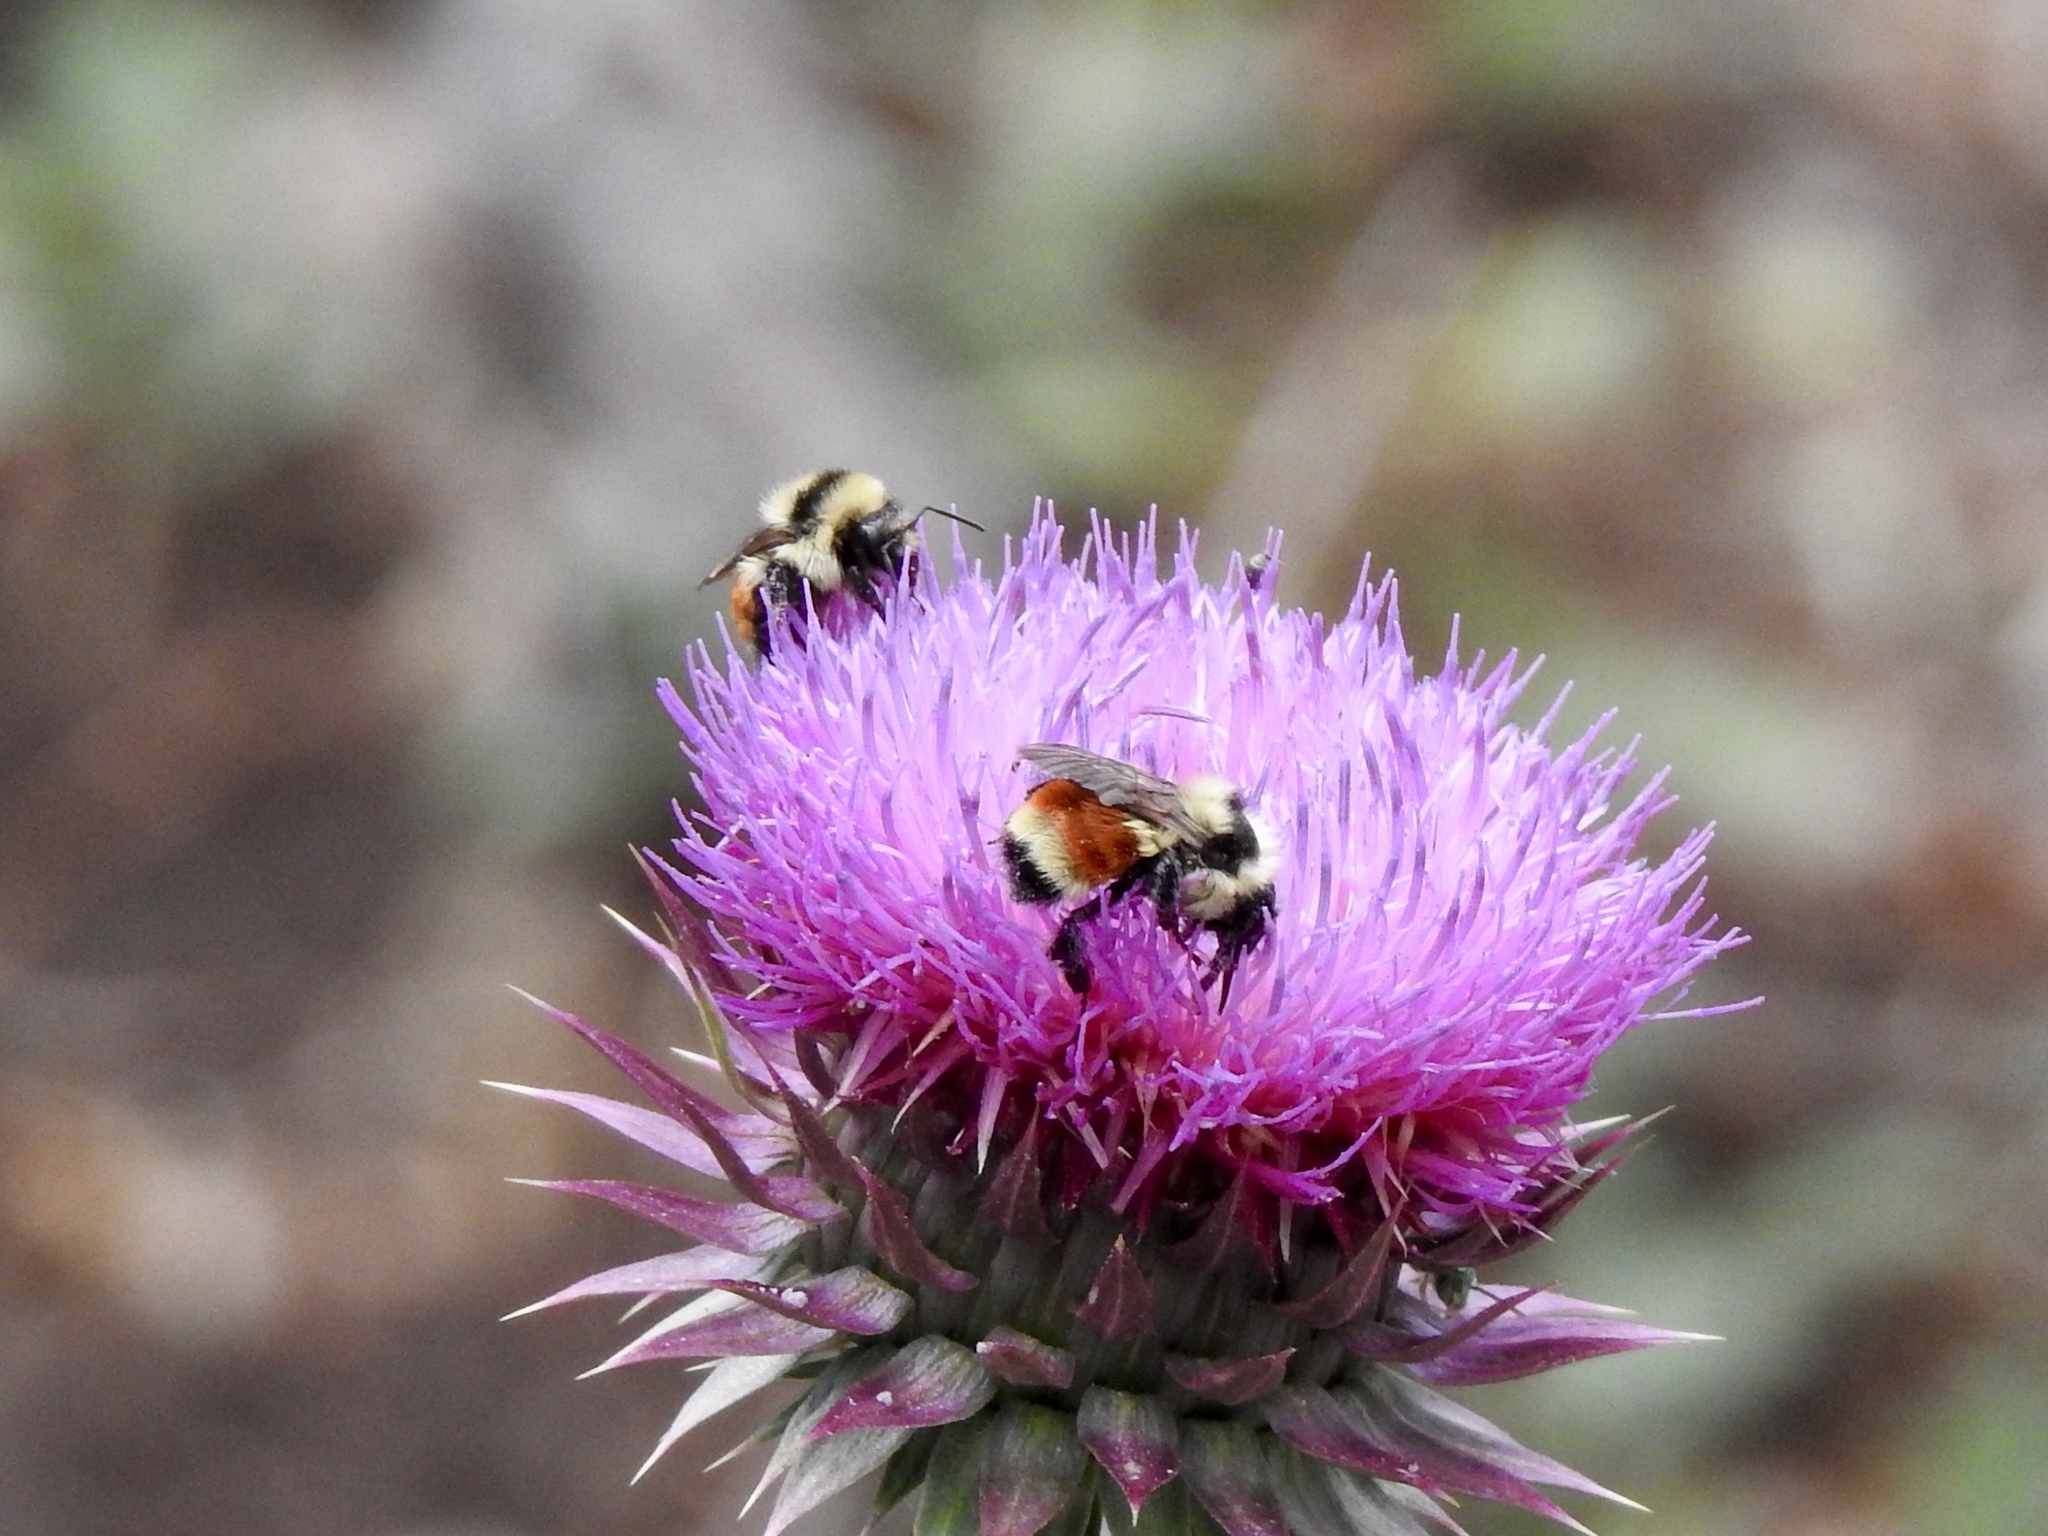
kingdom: Animalia
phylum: Arthropoda
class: Insecta
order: Hymenoptera
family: Apidae
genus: Bombus
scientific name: Bombus huntii
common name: Hunt bumble bee
